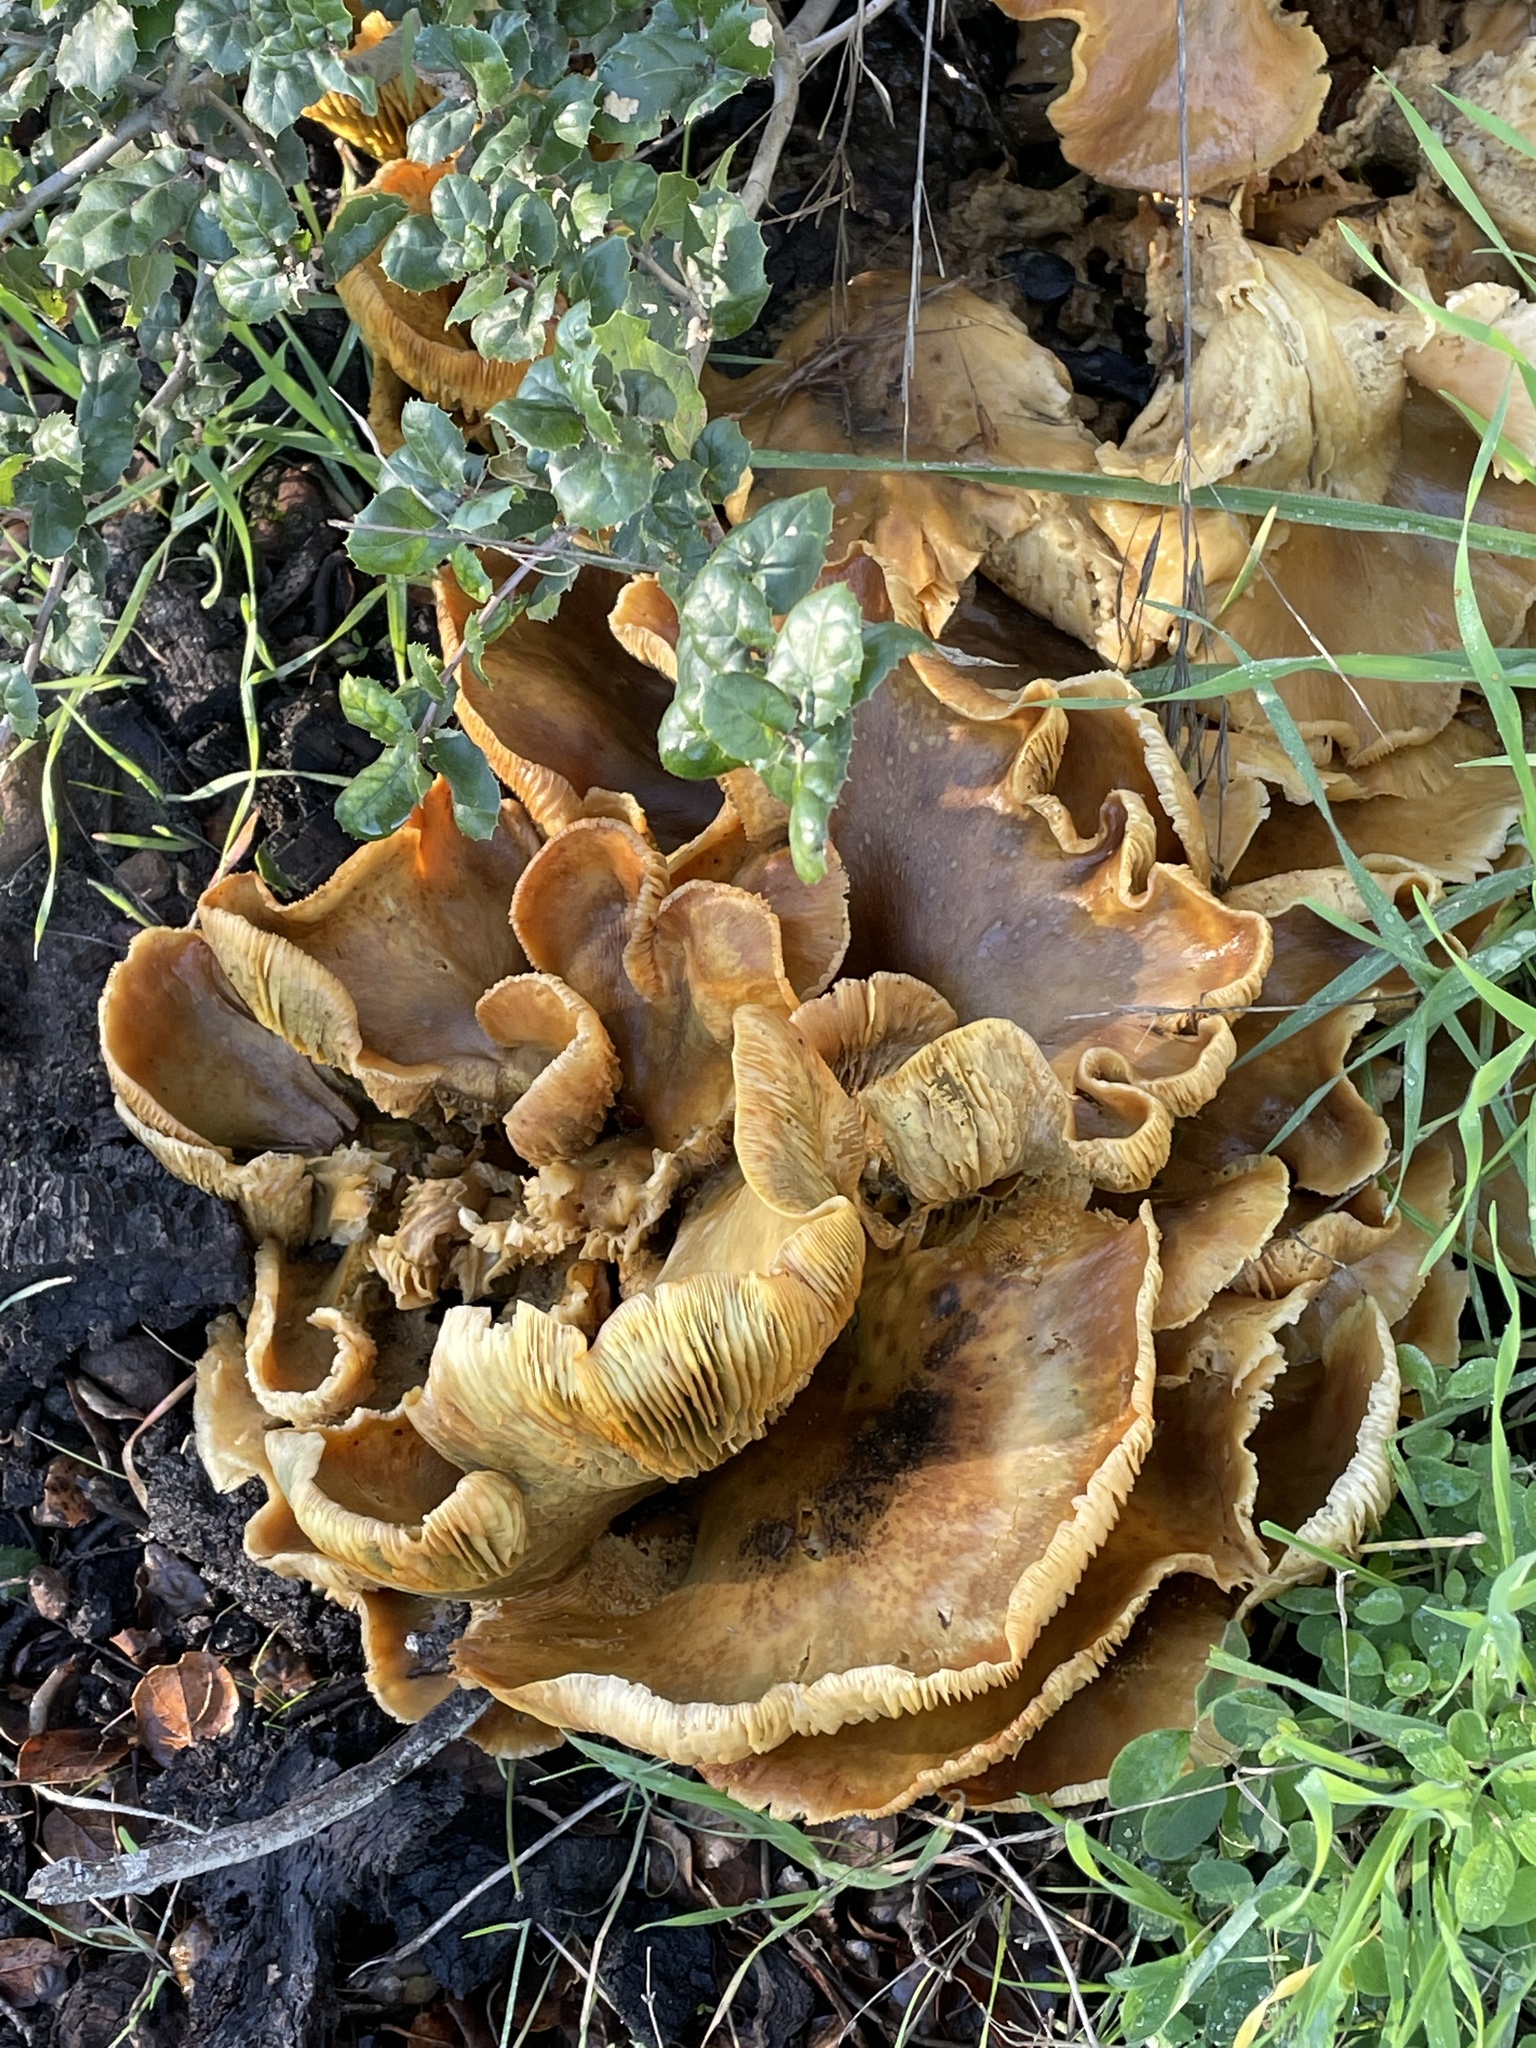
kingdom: Fungi
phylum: Basidiomycota
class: Agaricomycetes
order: Agaricales
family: Omphalotaceae
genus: Omphalotus
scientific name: Omphalotus olivascens
